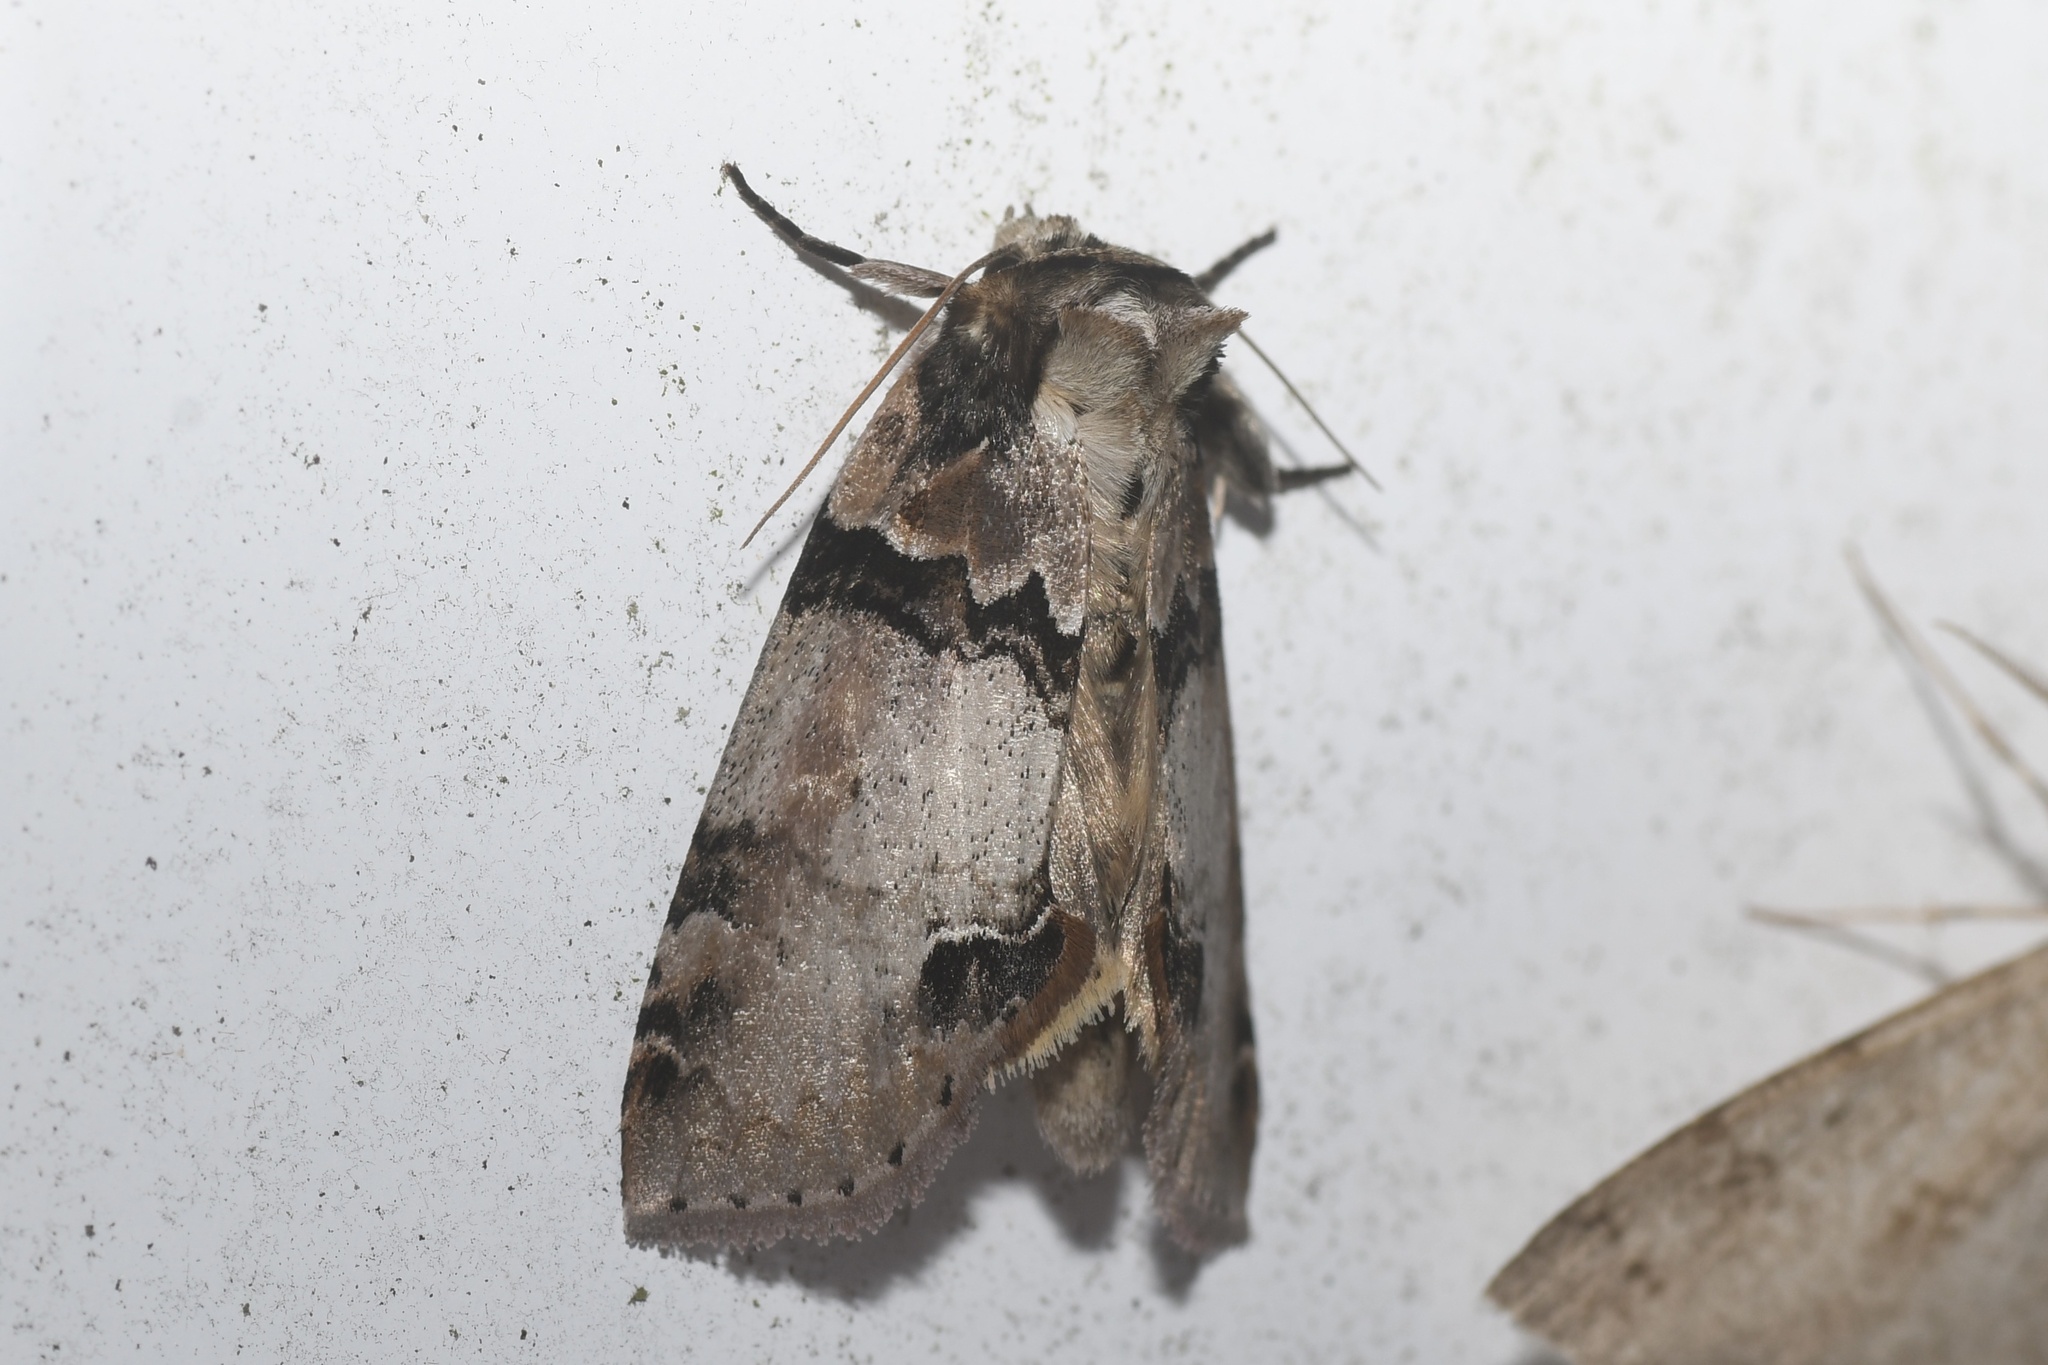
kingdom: Animalia
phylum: Arthropoda
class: Insecta
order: Lepidoptera
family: Drepanidae
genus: Pseudothyatira
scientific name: Pseudothyatira cymatophoroides
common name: Tufted thyatirid moth
